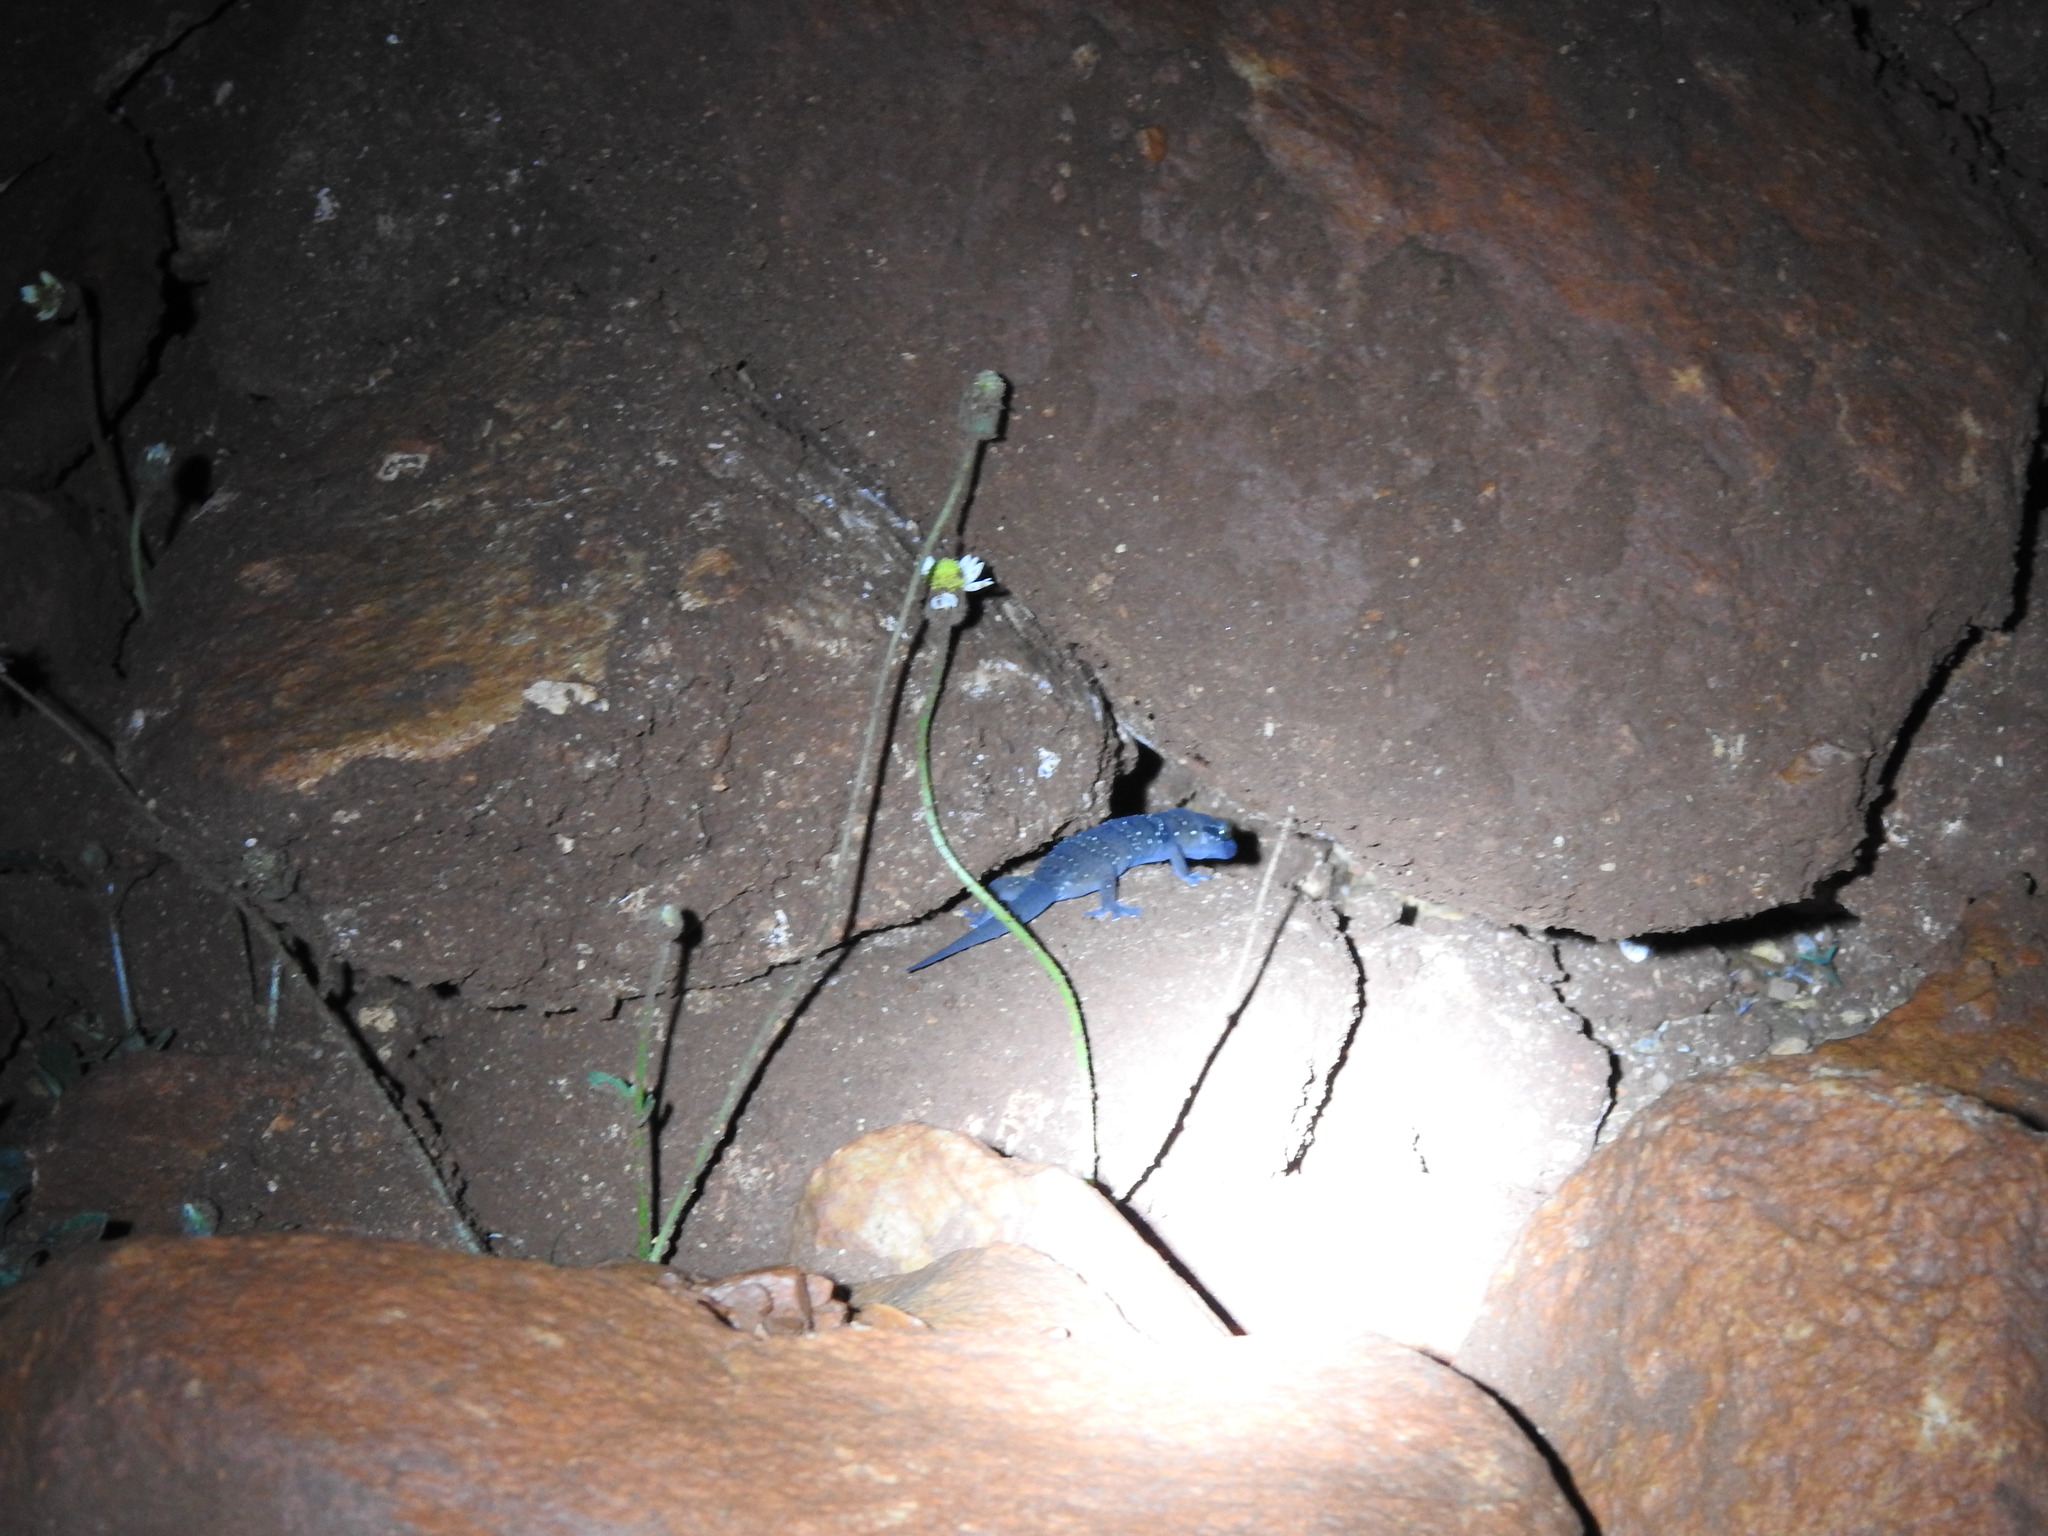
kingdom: Animalia
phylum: Chordata
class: Squamata
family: Gekkonidae
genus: Hemidactylus
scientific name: Hemidactylus triedrus
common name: Blotched house gecko
